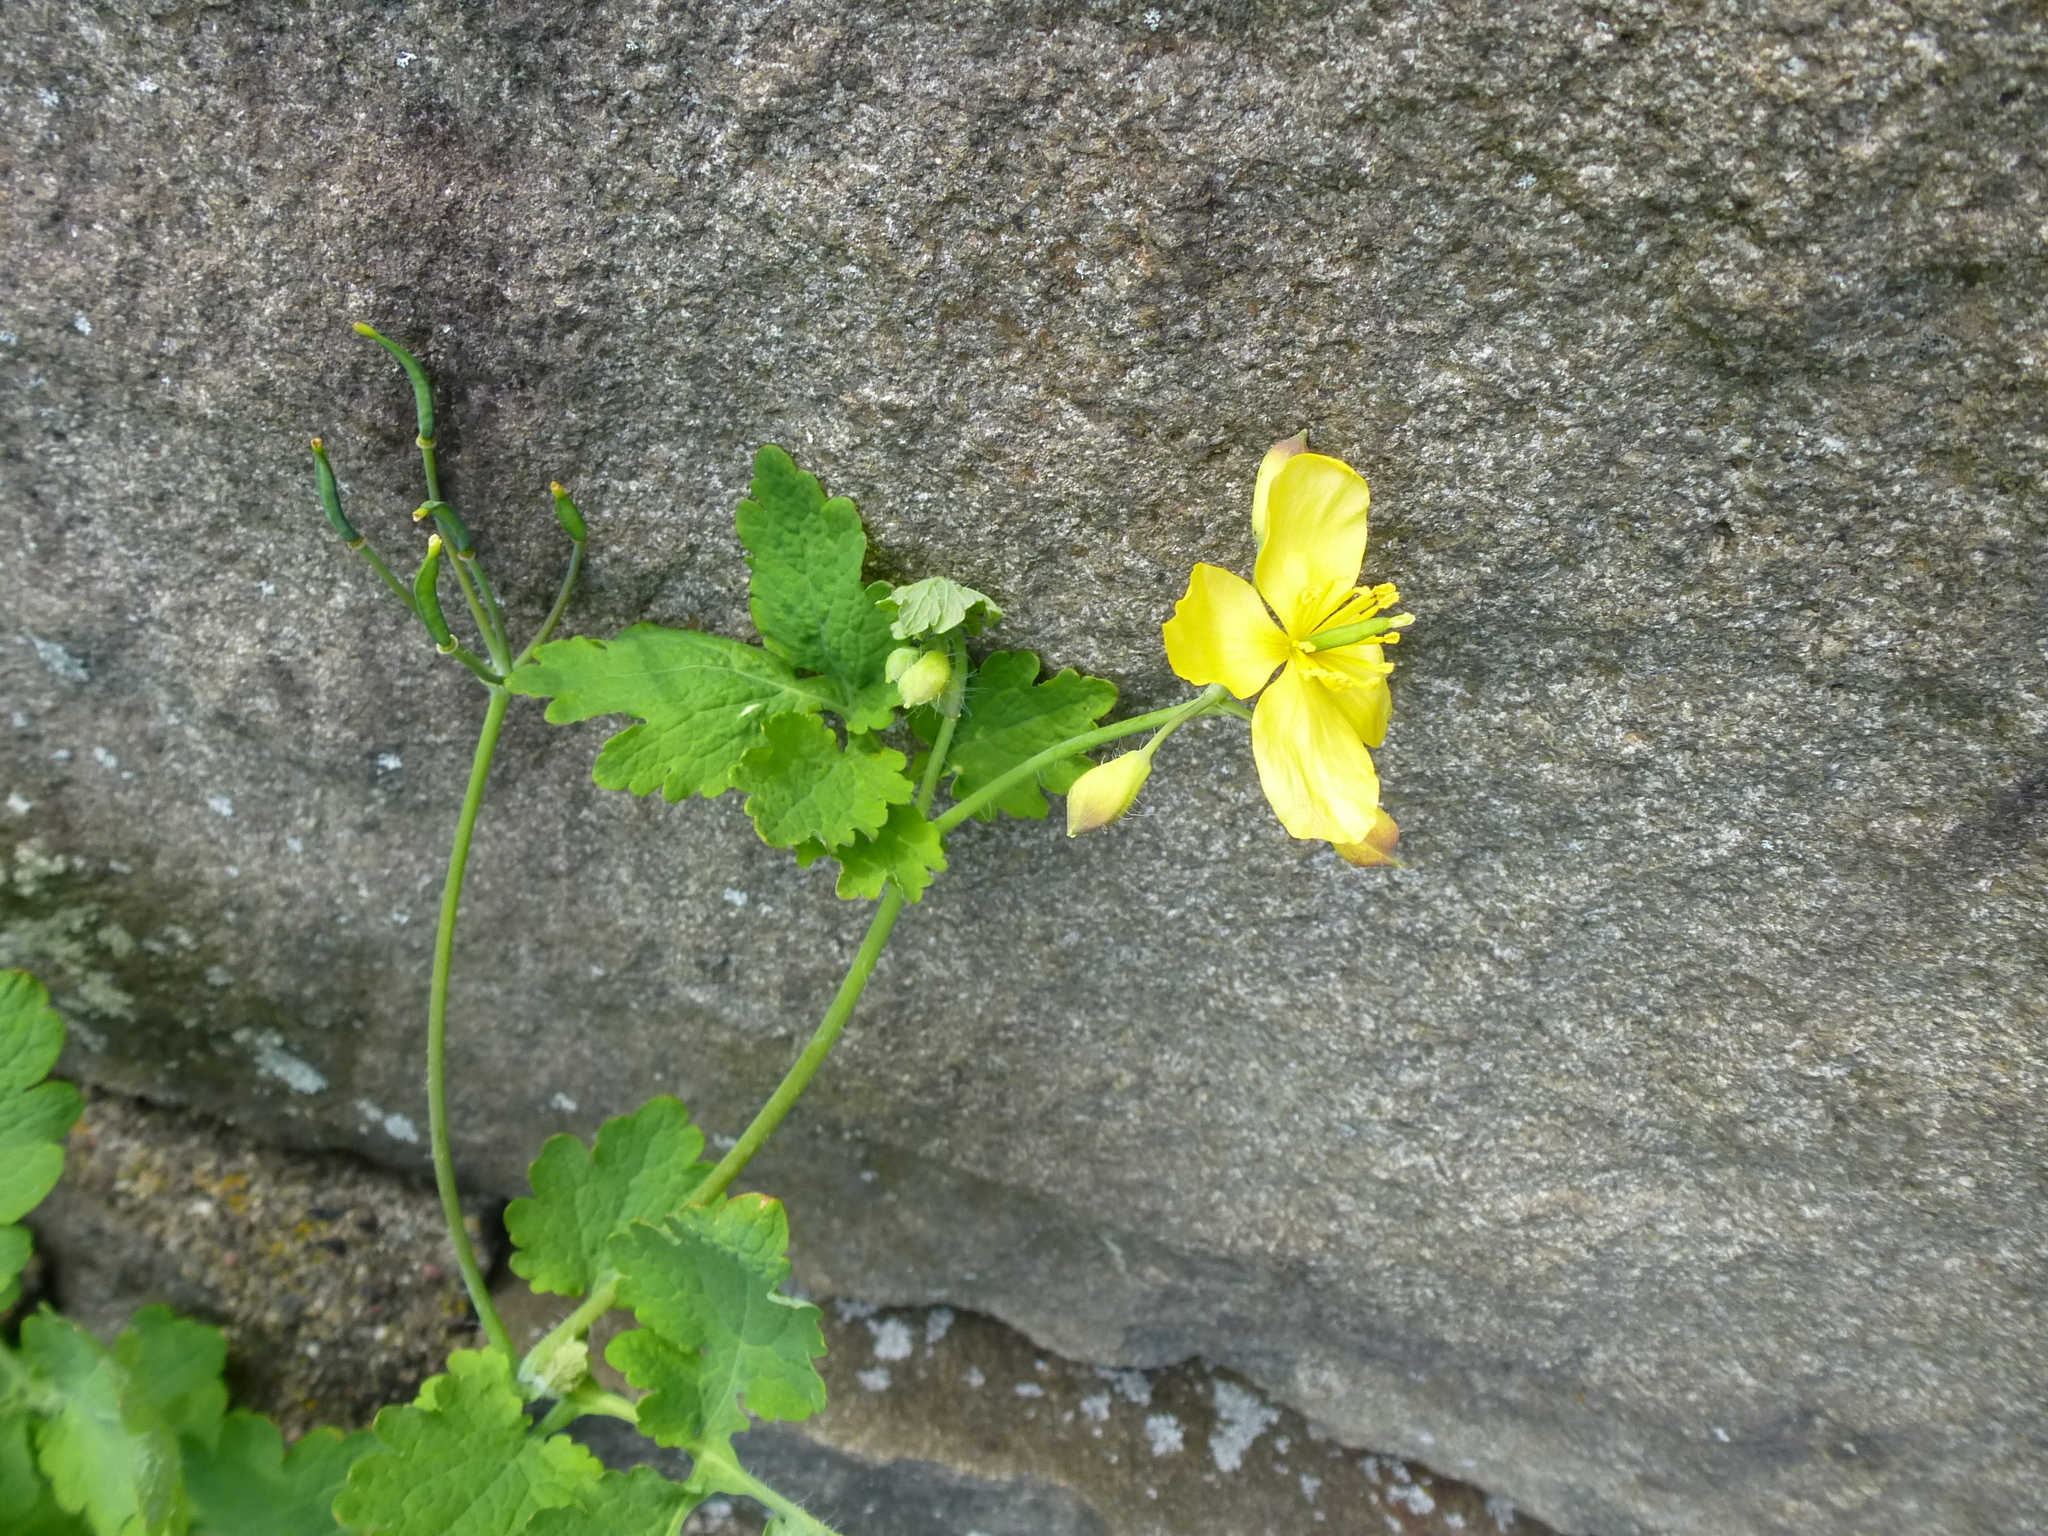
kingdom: Plantae
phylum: Tracheophyta
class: Magnoliopsida
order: Ranunculales
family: Papaveraceae
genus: Chelidonium
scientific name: Chelidonium majus
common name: Greater celandine
